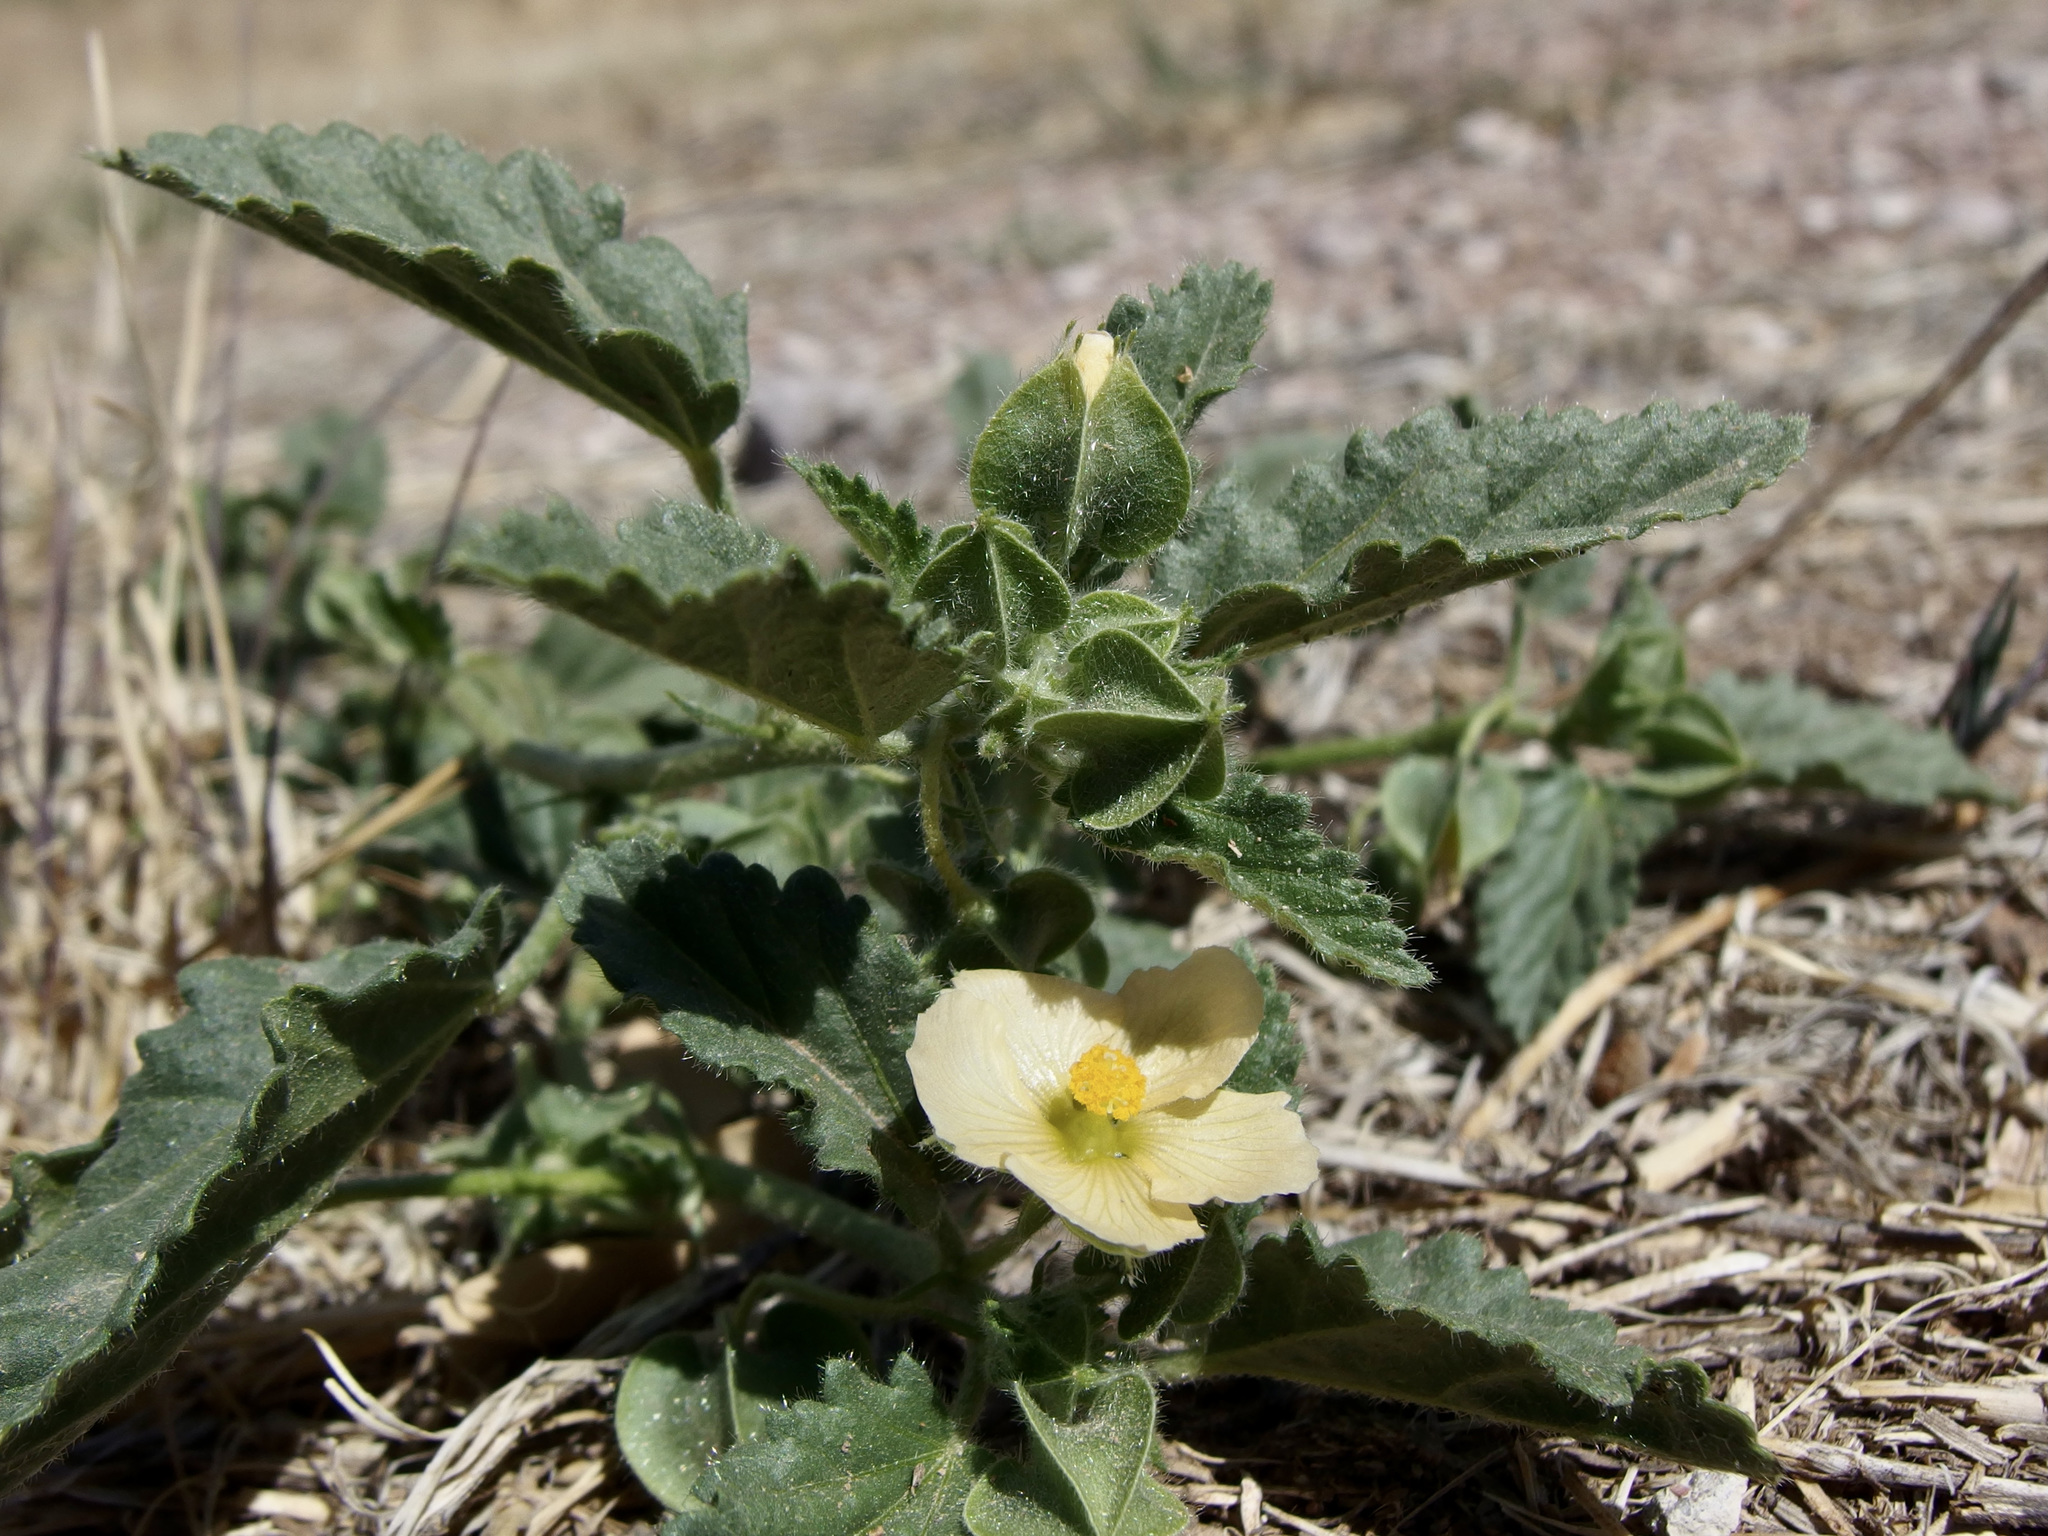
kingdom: Plantae
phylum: Tracheophyta
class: Magnoliopsida
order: Malvales
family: Malvaceae
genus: Rhynchosida
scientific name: Rhynchosida physocalyx
